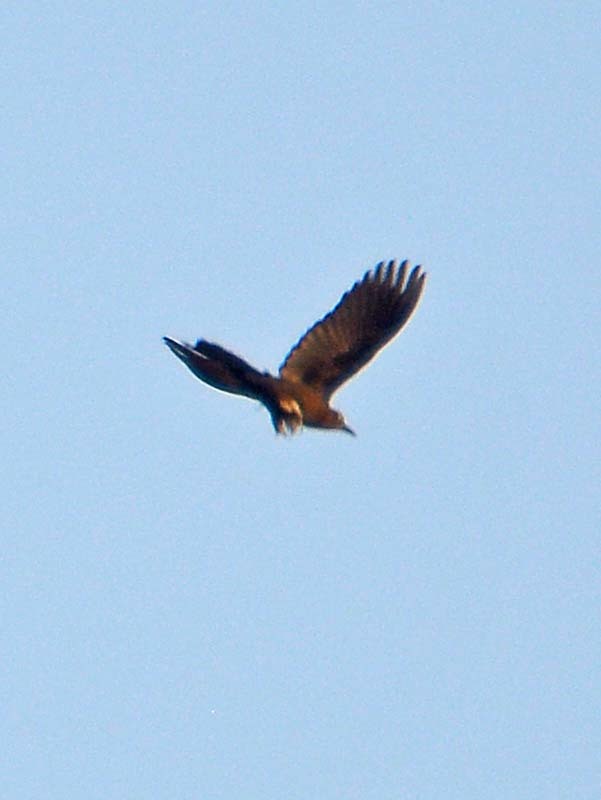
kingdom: Animalia
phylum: Chordata
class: Aves
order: Passeriformes
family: Icteridae
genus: Quiscalus
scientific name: Quiscalus mexicanus
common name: Great-tailed grackle
